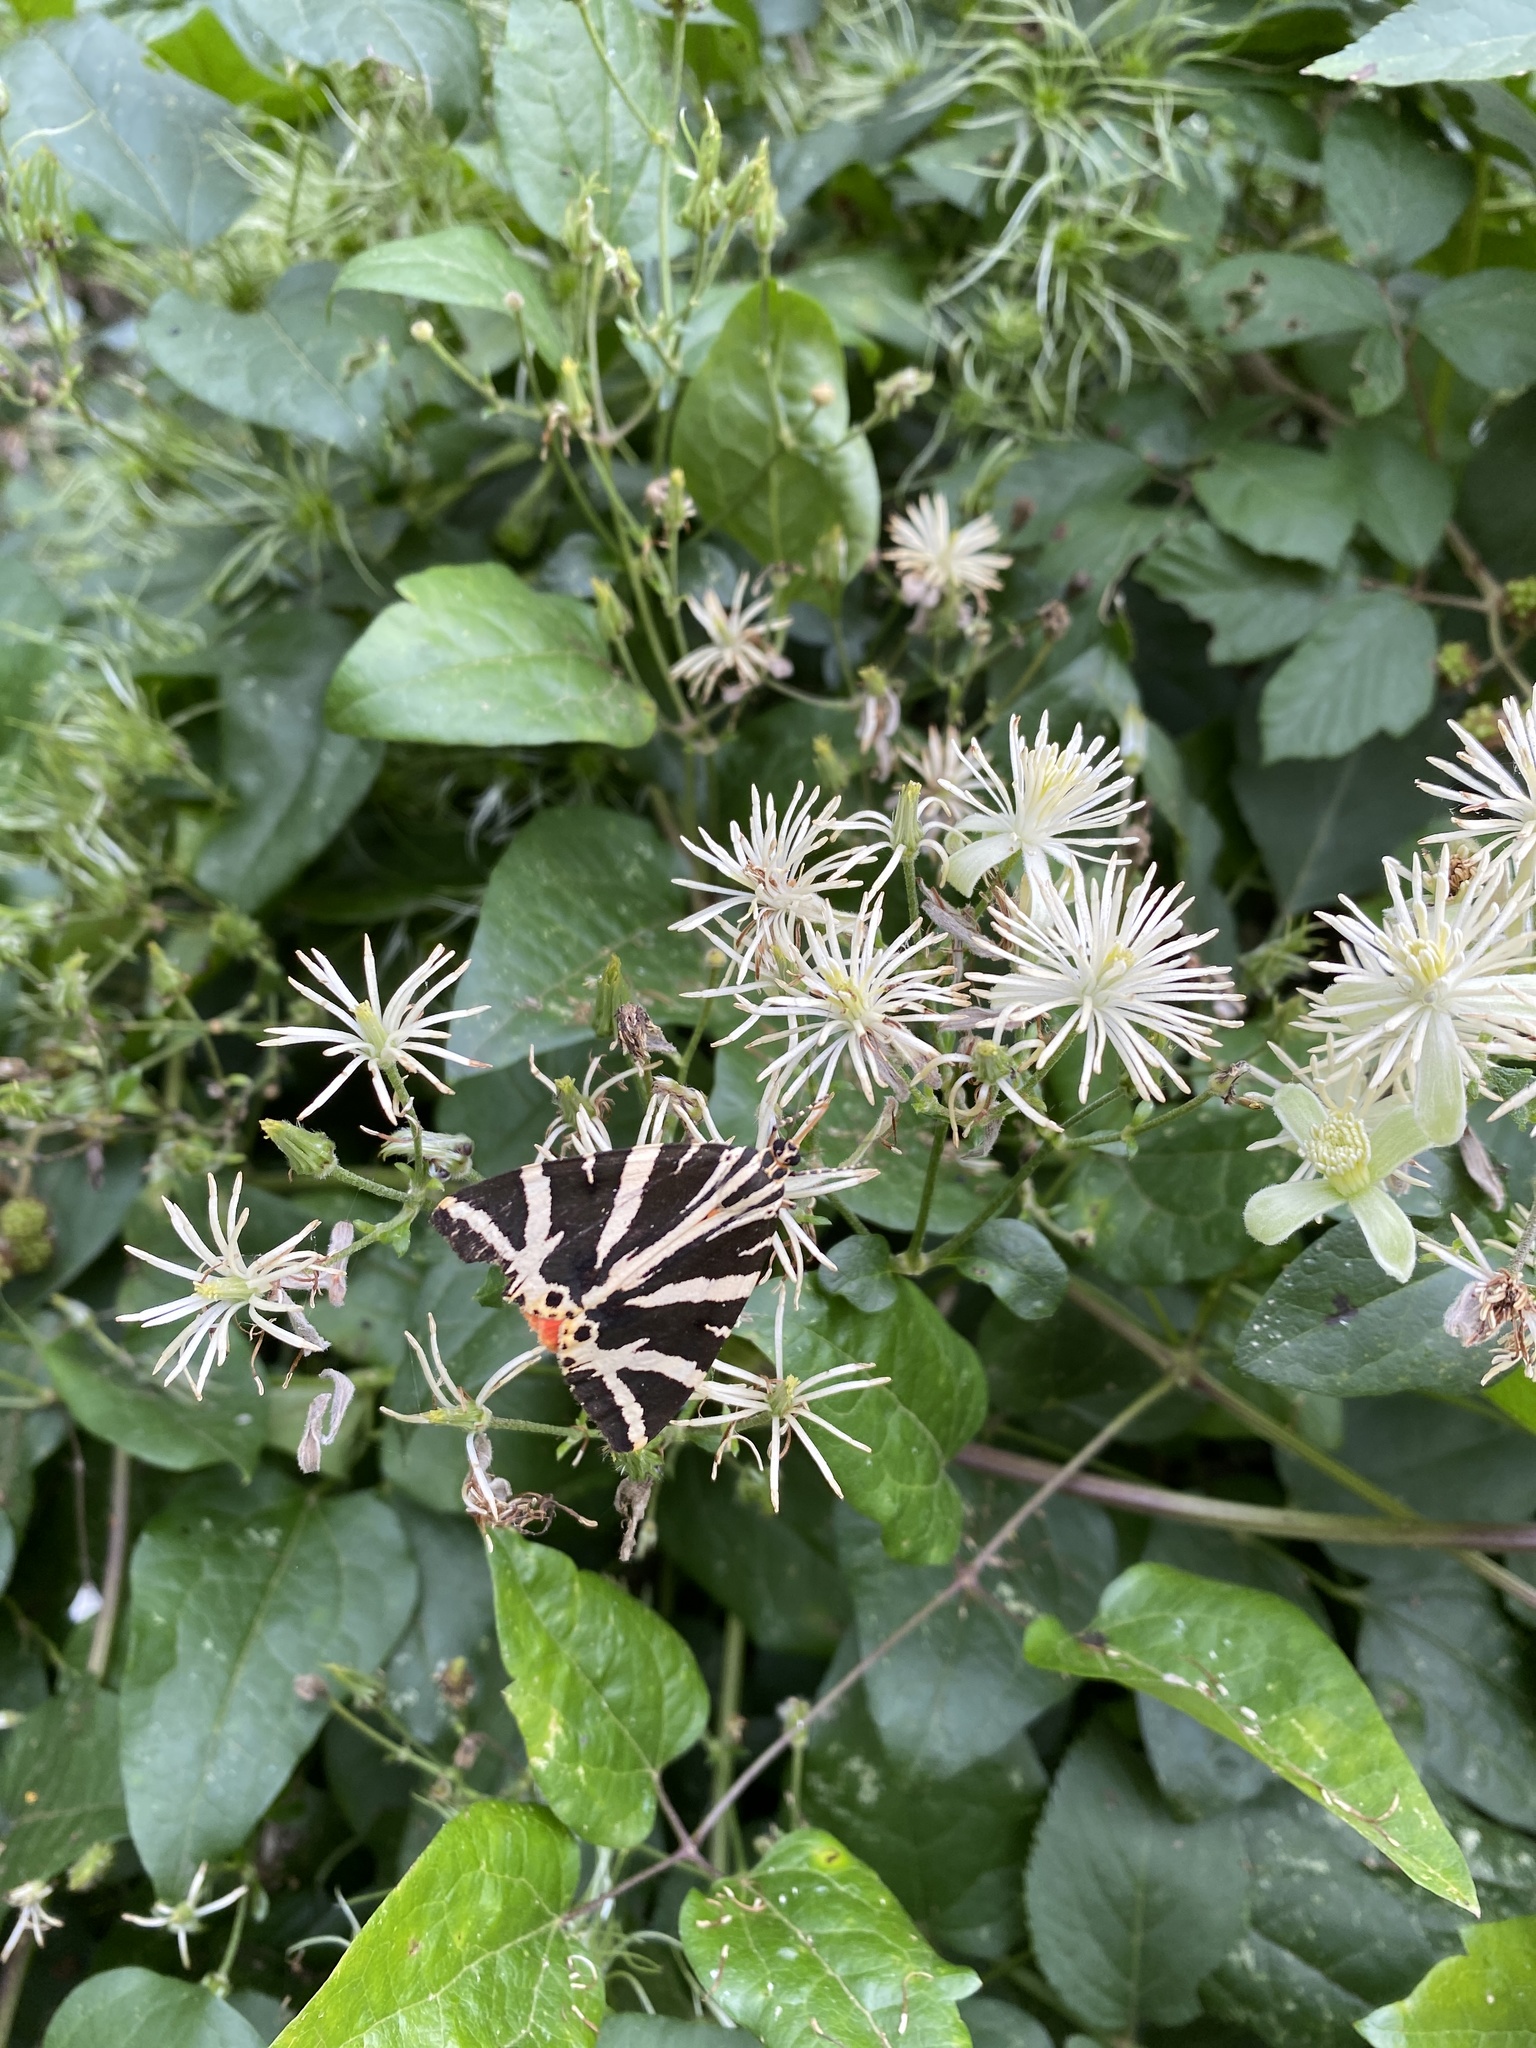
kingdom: Animalia
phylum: Arthropoda
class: Insecta
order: Lepidoptera
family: Erebidae
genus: Euplagia
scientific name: Euplagia quadripunctaria
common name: Jersey tiger
